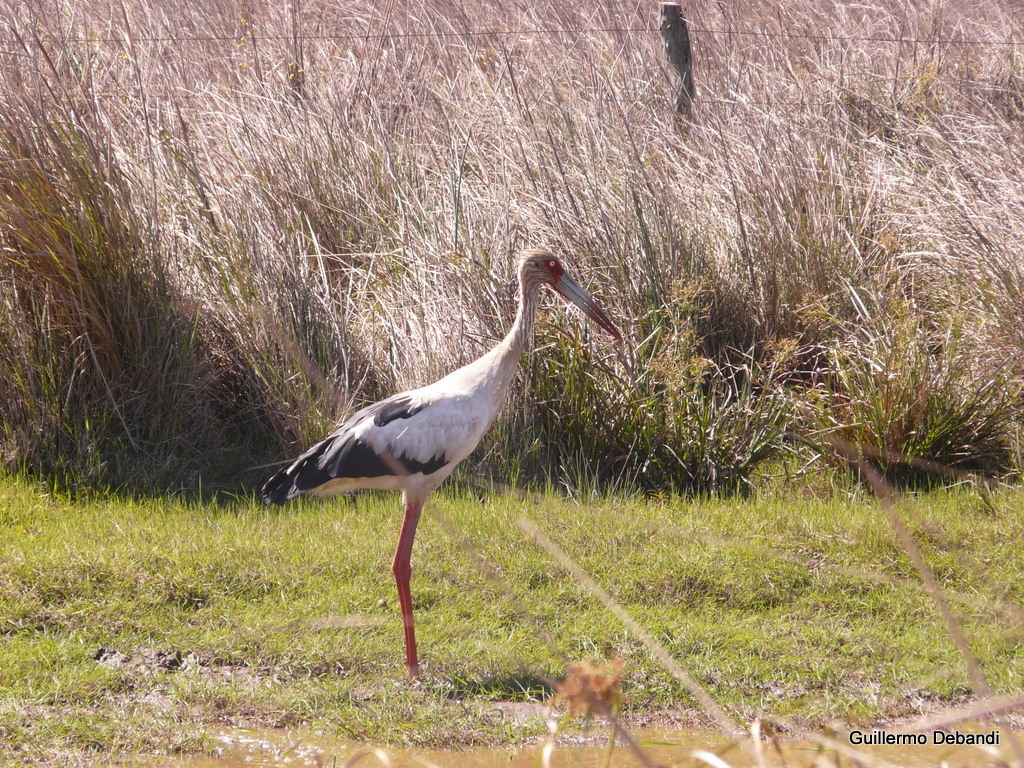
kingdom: Animalia
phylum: Chordata
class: Aves
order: Ciconiiformes
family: Ciconiidae
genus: Ciconia
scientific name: Ciconia maguari
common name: Maguari stork
